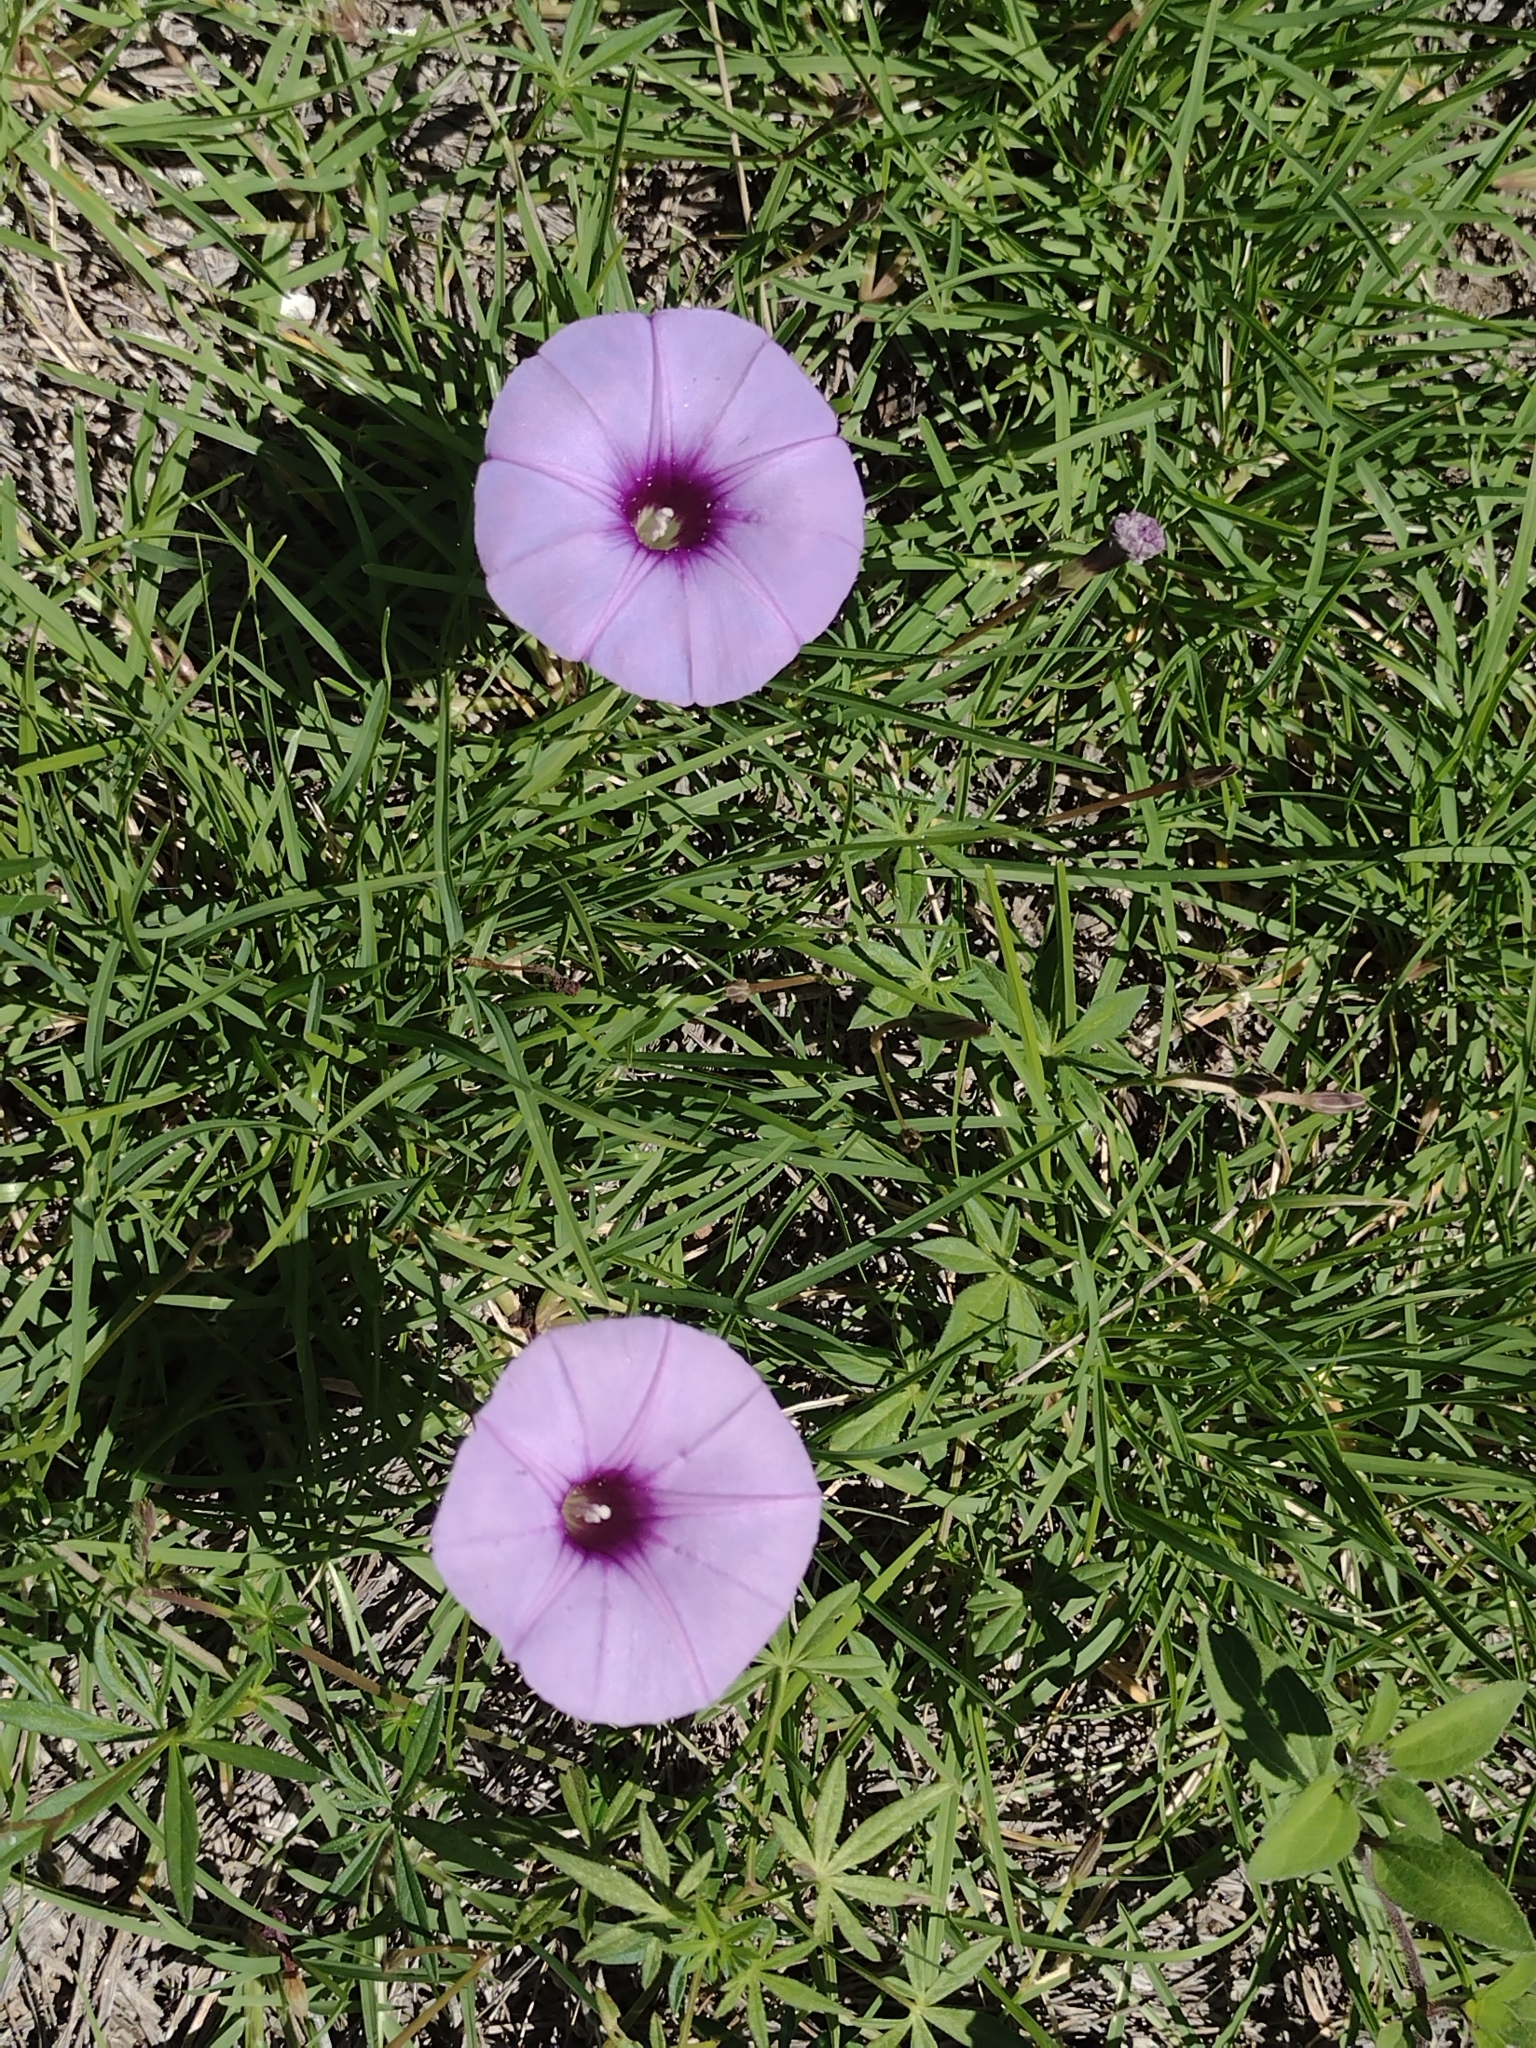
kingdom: Plantae
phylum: Tracheophyta
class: Magnoliopsida
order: Solanales
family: Convolvulaceae
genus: Ipomoea
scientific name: Ipomoea ternifolia
